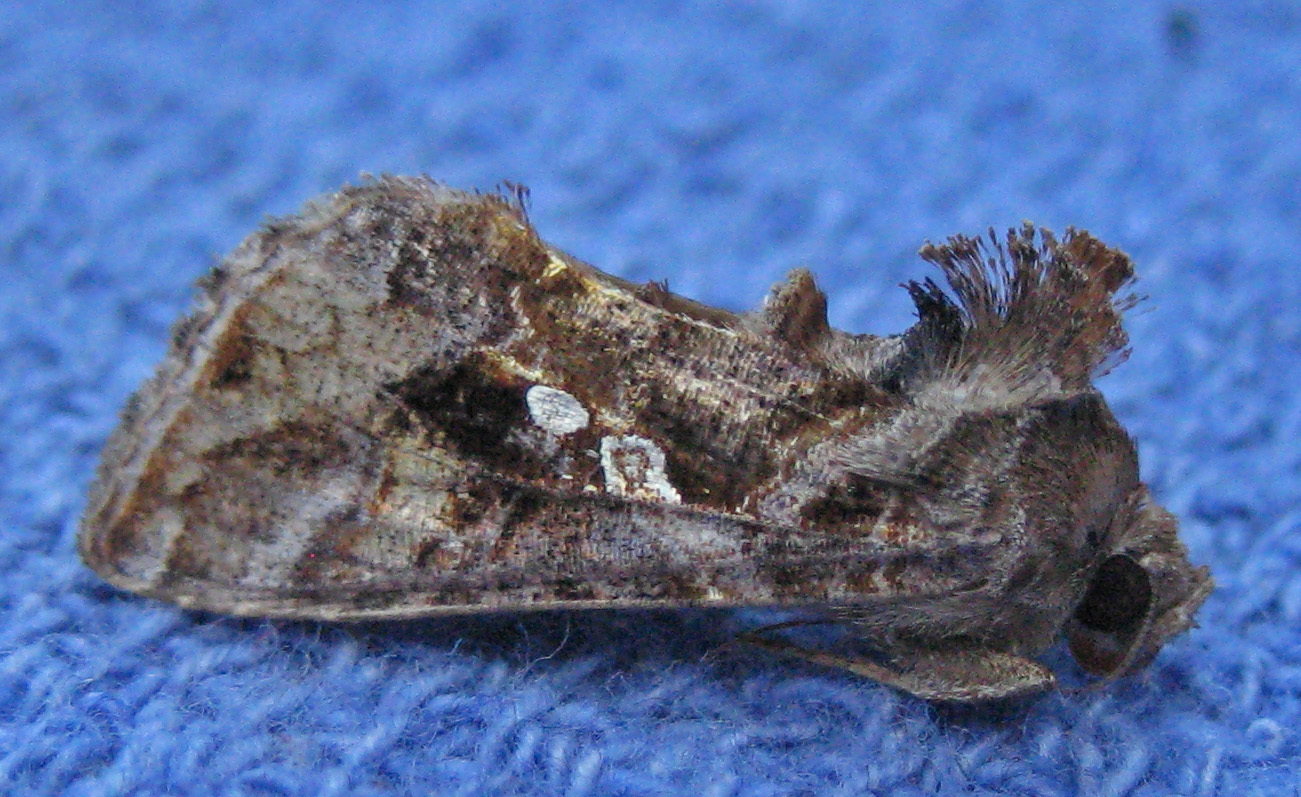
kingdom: Animalia
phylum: Arthropoda
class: Insecta
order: Lepidoptera
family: Noctuidae
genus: Chrysodeixis
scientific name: Chrysodeixis includens
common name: Cutworm moth
